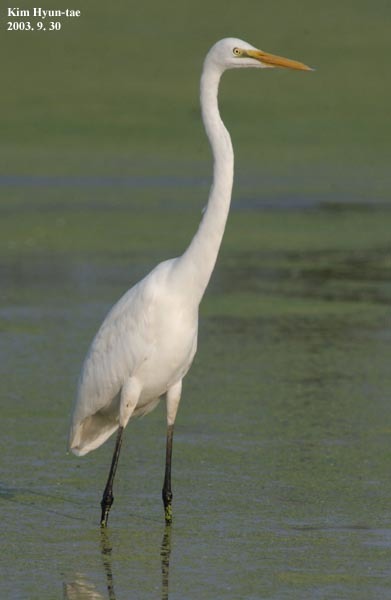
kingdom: Animalia
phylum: Chordata
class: Aves
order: Pelecaniformes
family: Ardeidae
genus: Ardea
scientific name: Ardea alba
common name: Great egret
